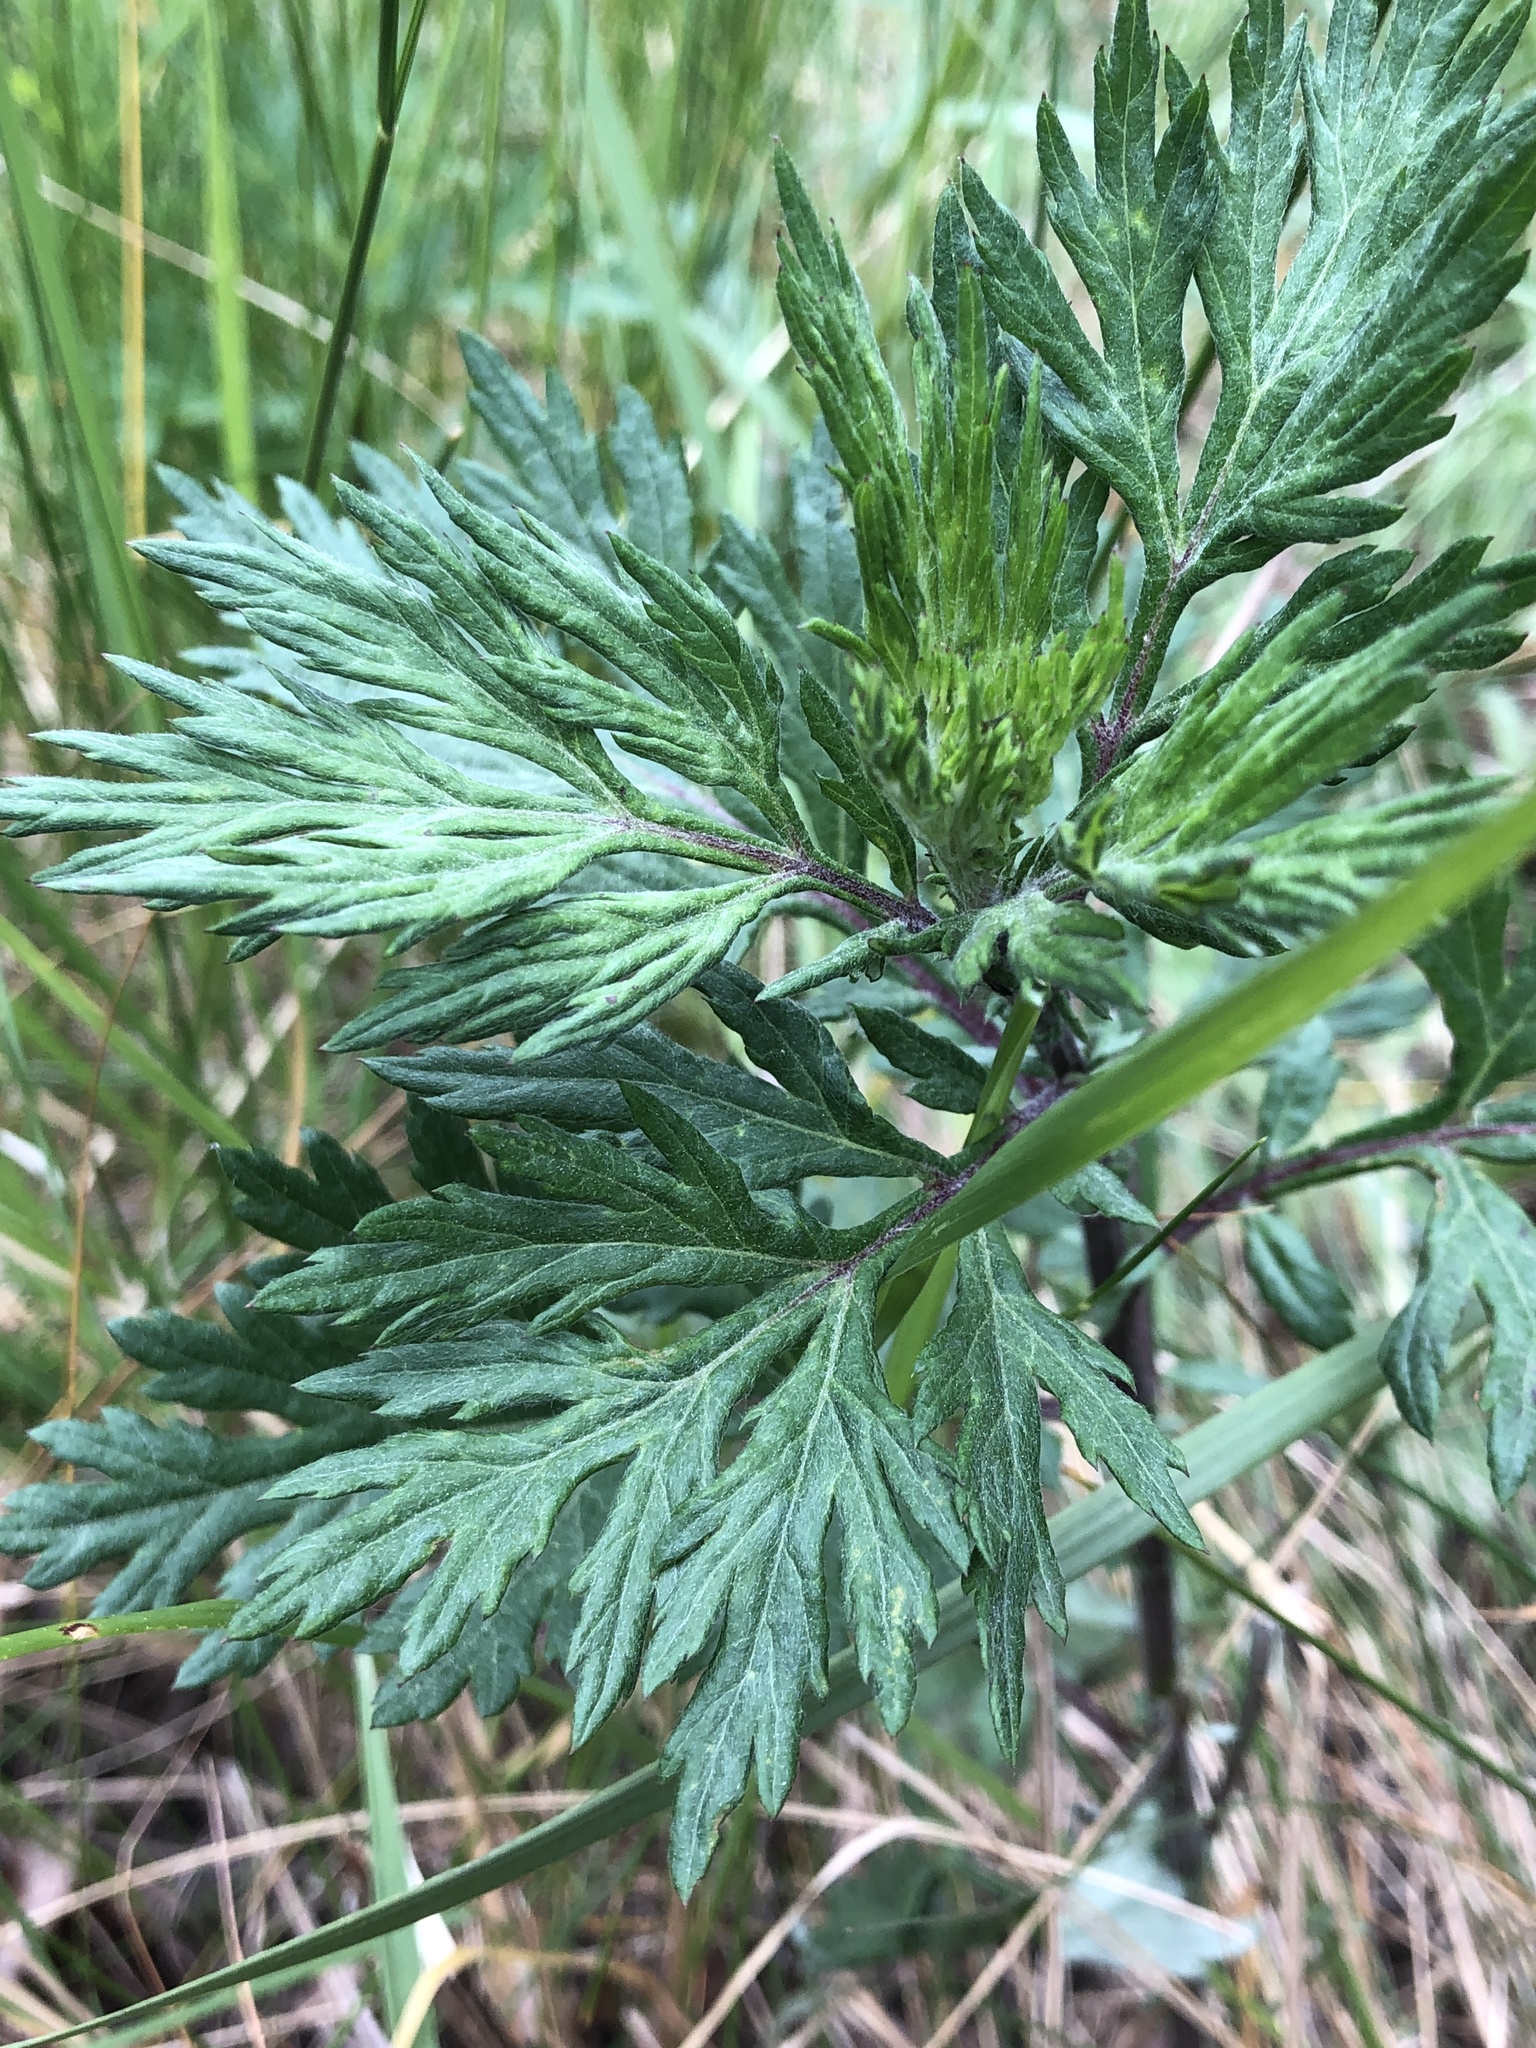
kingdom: Plantae
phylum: Tracheophyta
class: Magnoliopsida
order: Asterales
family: Asteraceae
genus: Artemisia
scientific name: Artemisia vulgaris
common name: Mugwort
